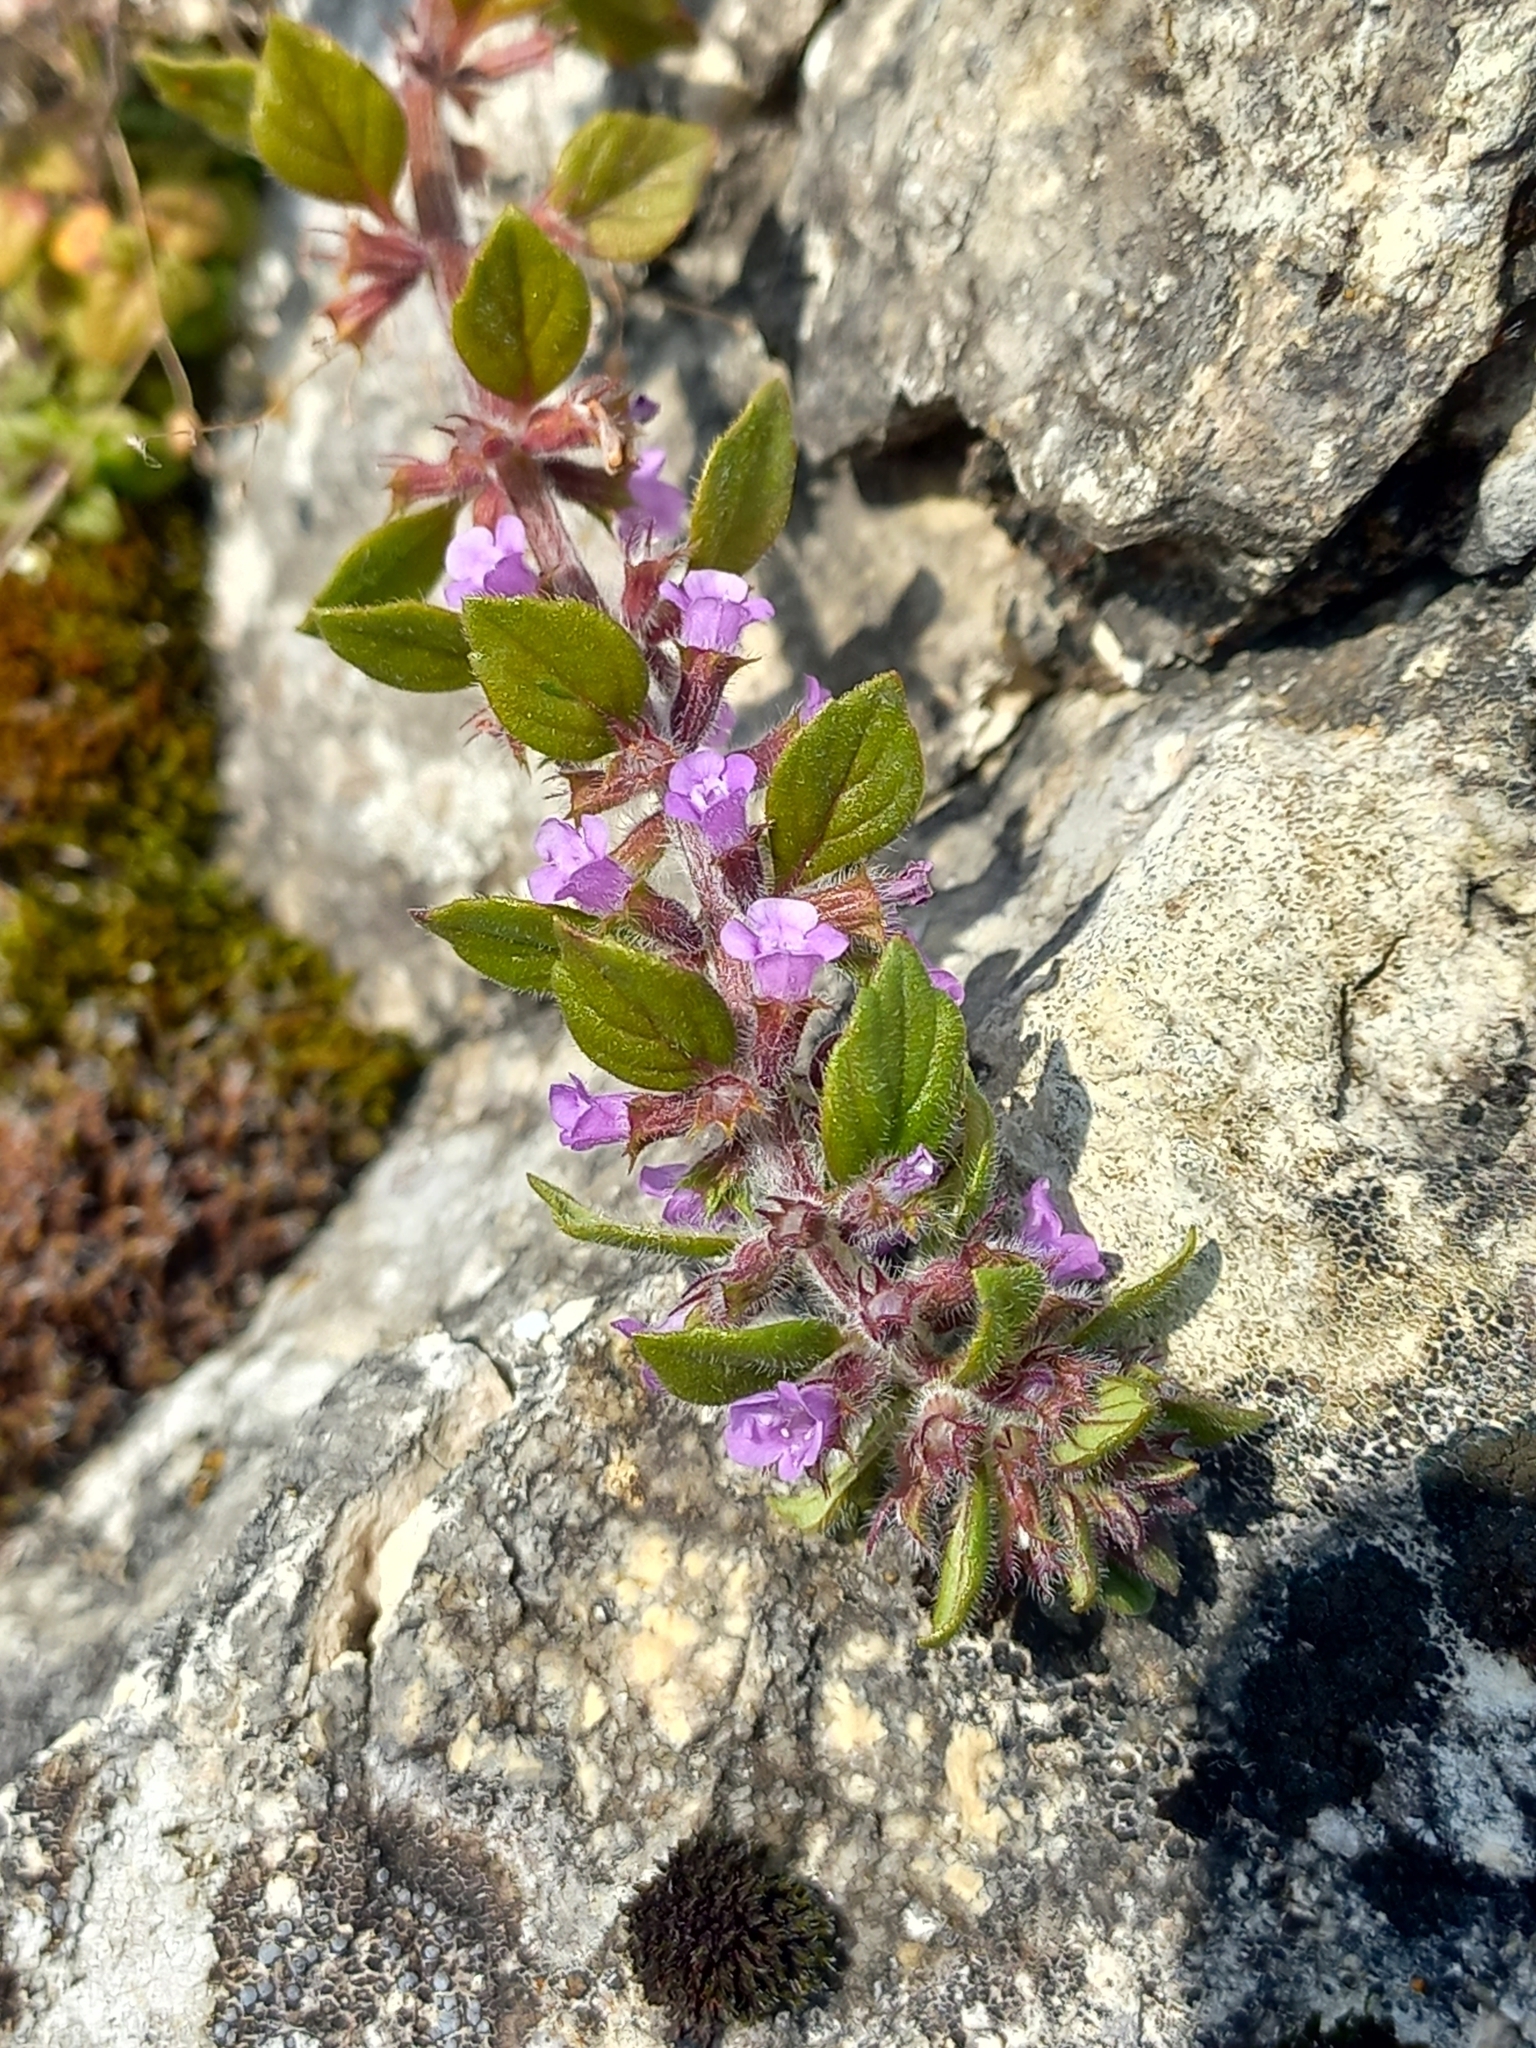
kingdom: Plantae
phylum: Tracheophyta
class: Magnoliopsida
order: Lamiales
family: Lamiaceae
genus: Clinopodium
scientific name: Clinopodium acinos
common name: Basil thyme
